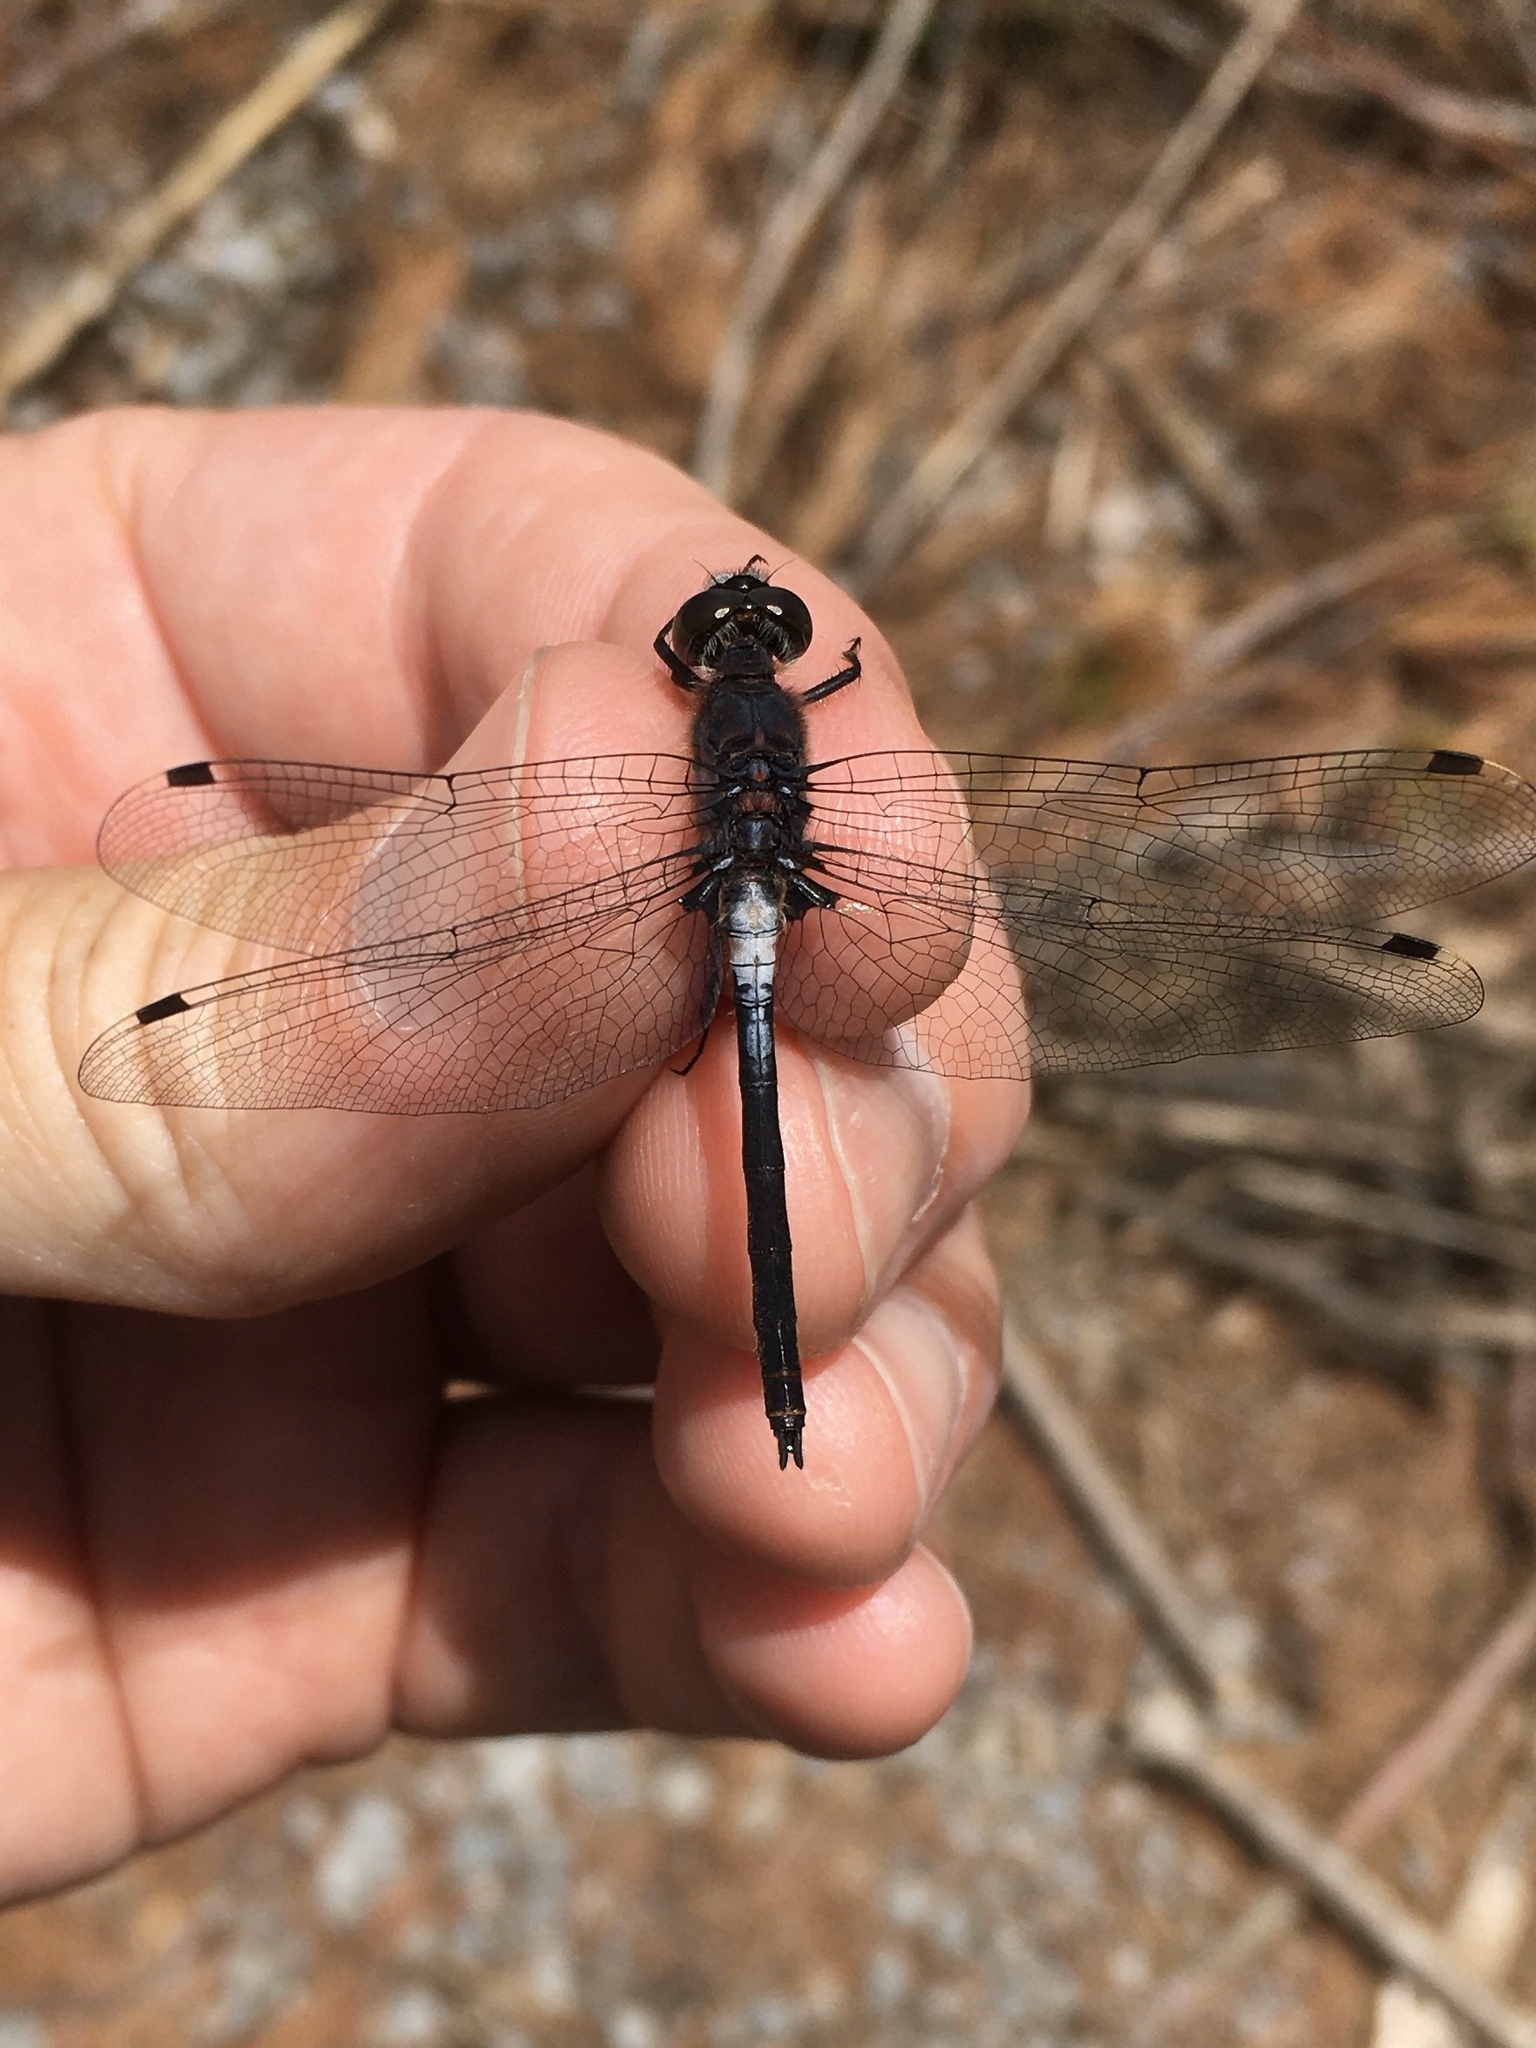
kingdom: Animalia
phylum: Arthropoda
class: Insecta
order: Odonata
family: Libellulidae
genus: Leucorrhinia
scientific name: Leucorrhinia proxima
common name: Belted whiteface
